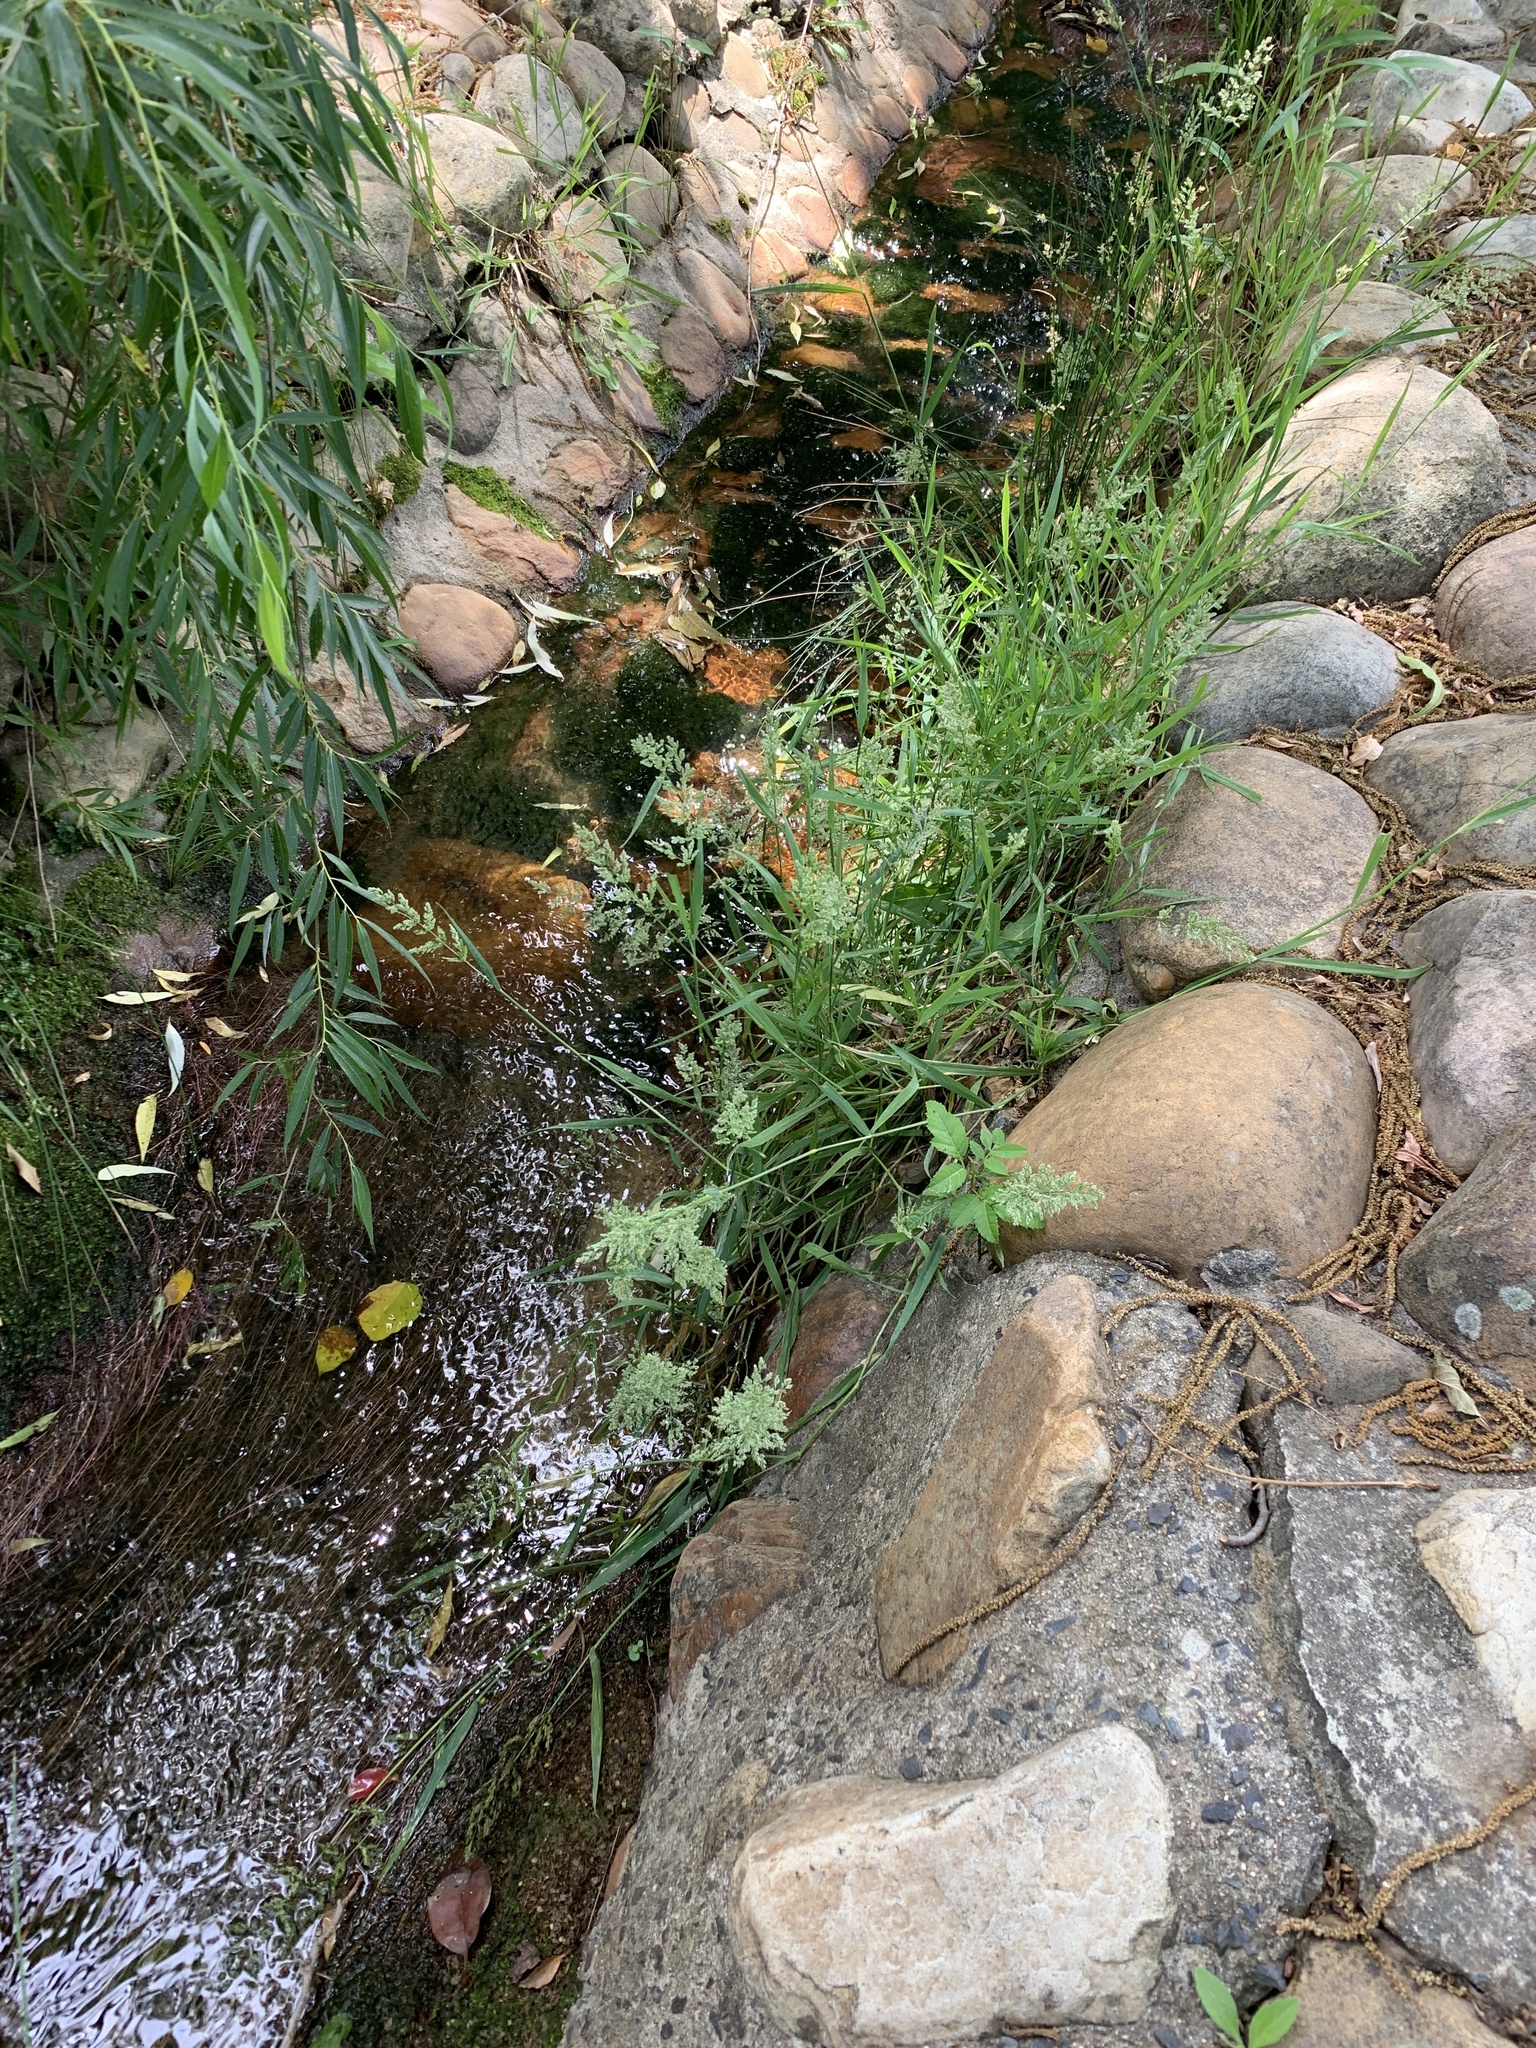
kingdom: Plantae
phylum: Tracheophyta
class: Liliopsida
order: Poales
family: Poaceae
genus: Polypogon
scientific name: Polypogon viridis
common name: Water bent
